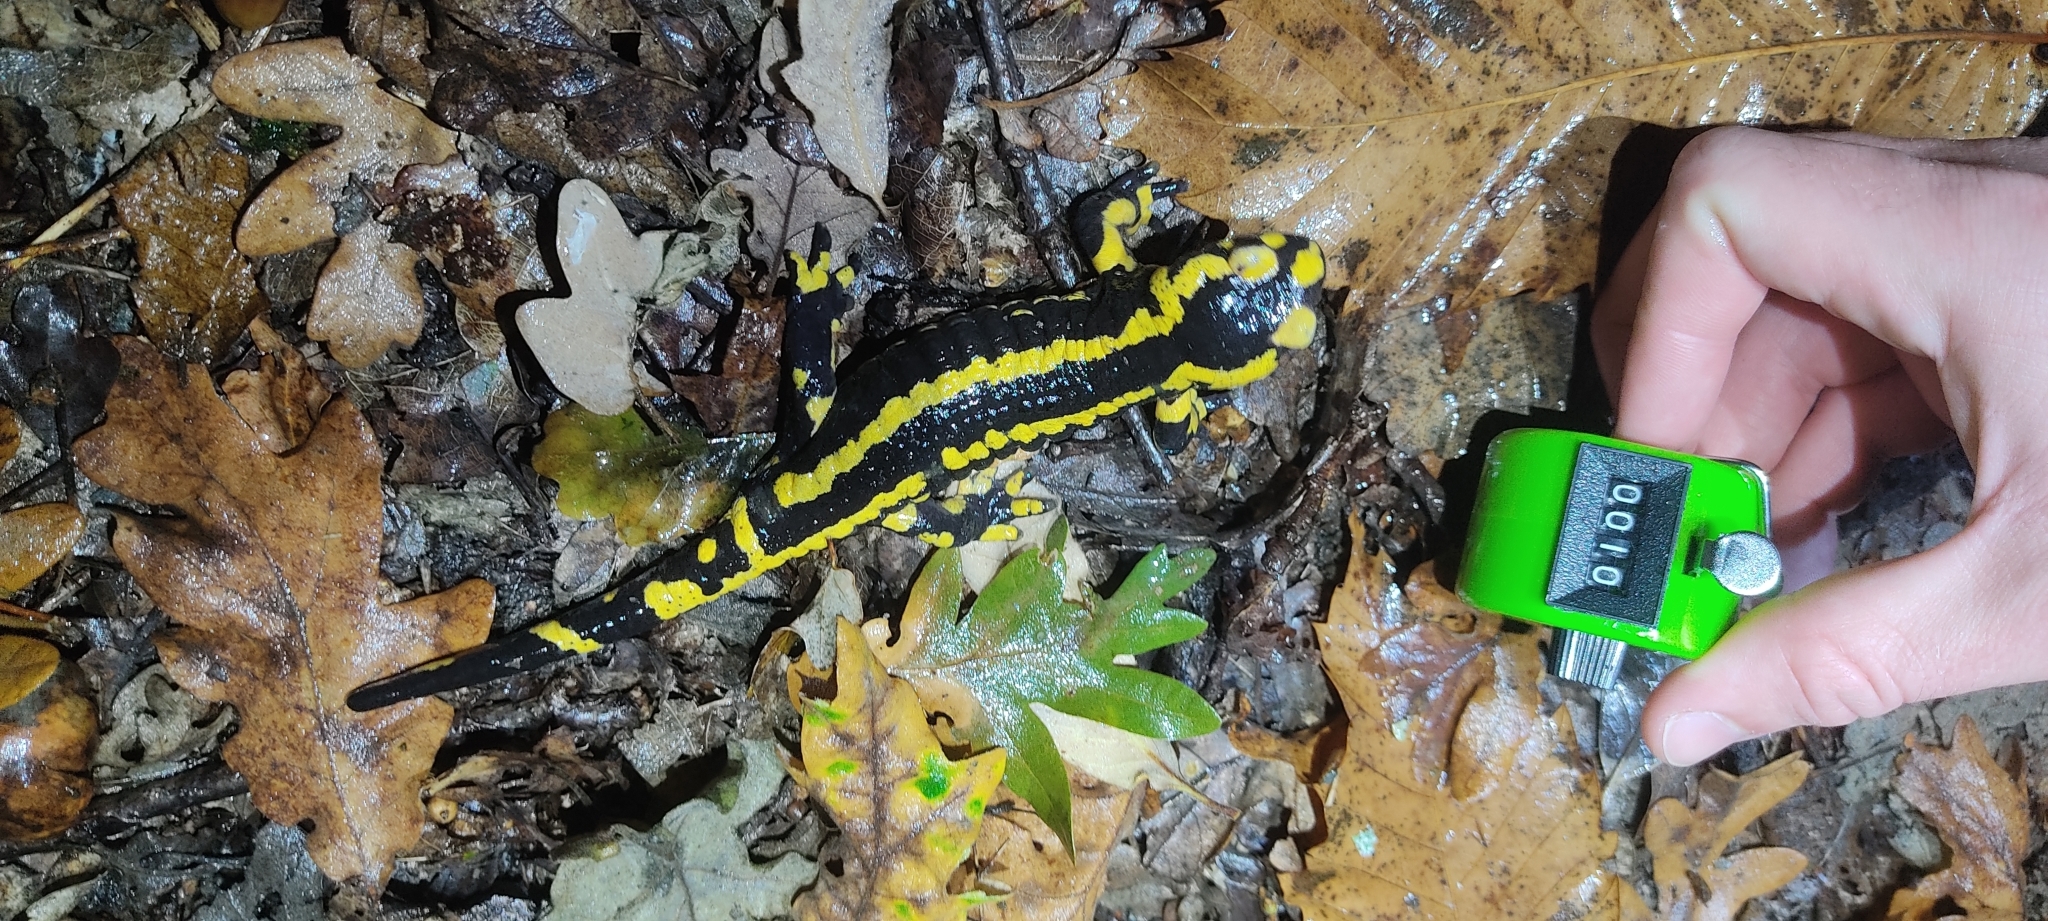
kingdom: Animalia
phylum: Chordata
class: Amphibia
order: Caudata
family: Salamandridae
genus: Salamandra
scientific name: Salamandra salamandra
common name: Fire salamander
